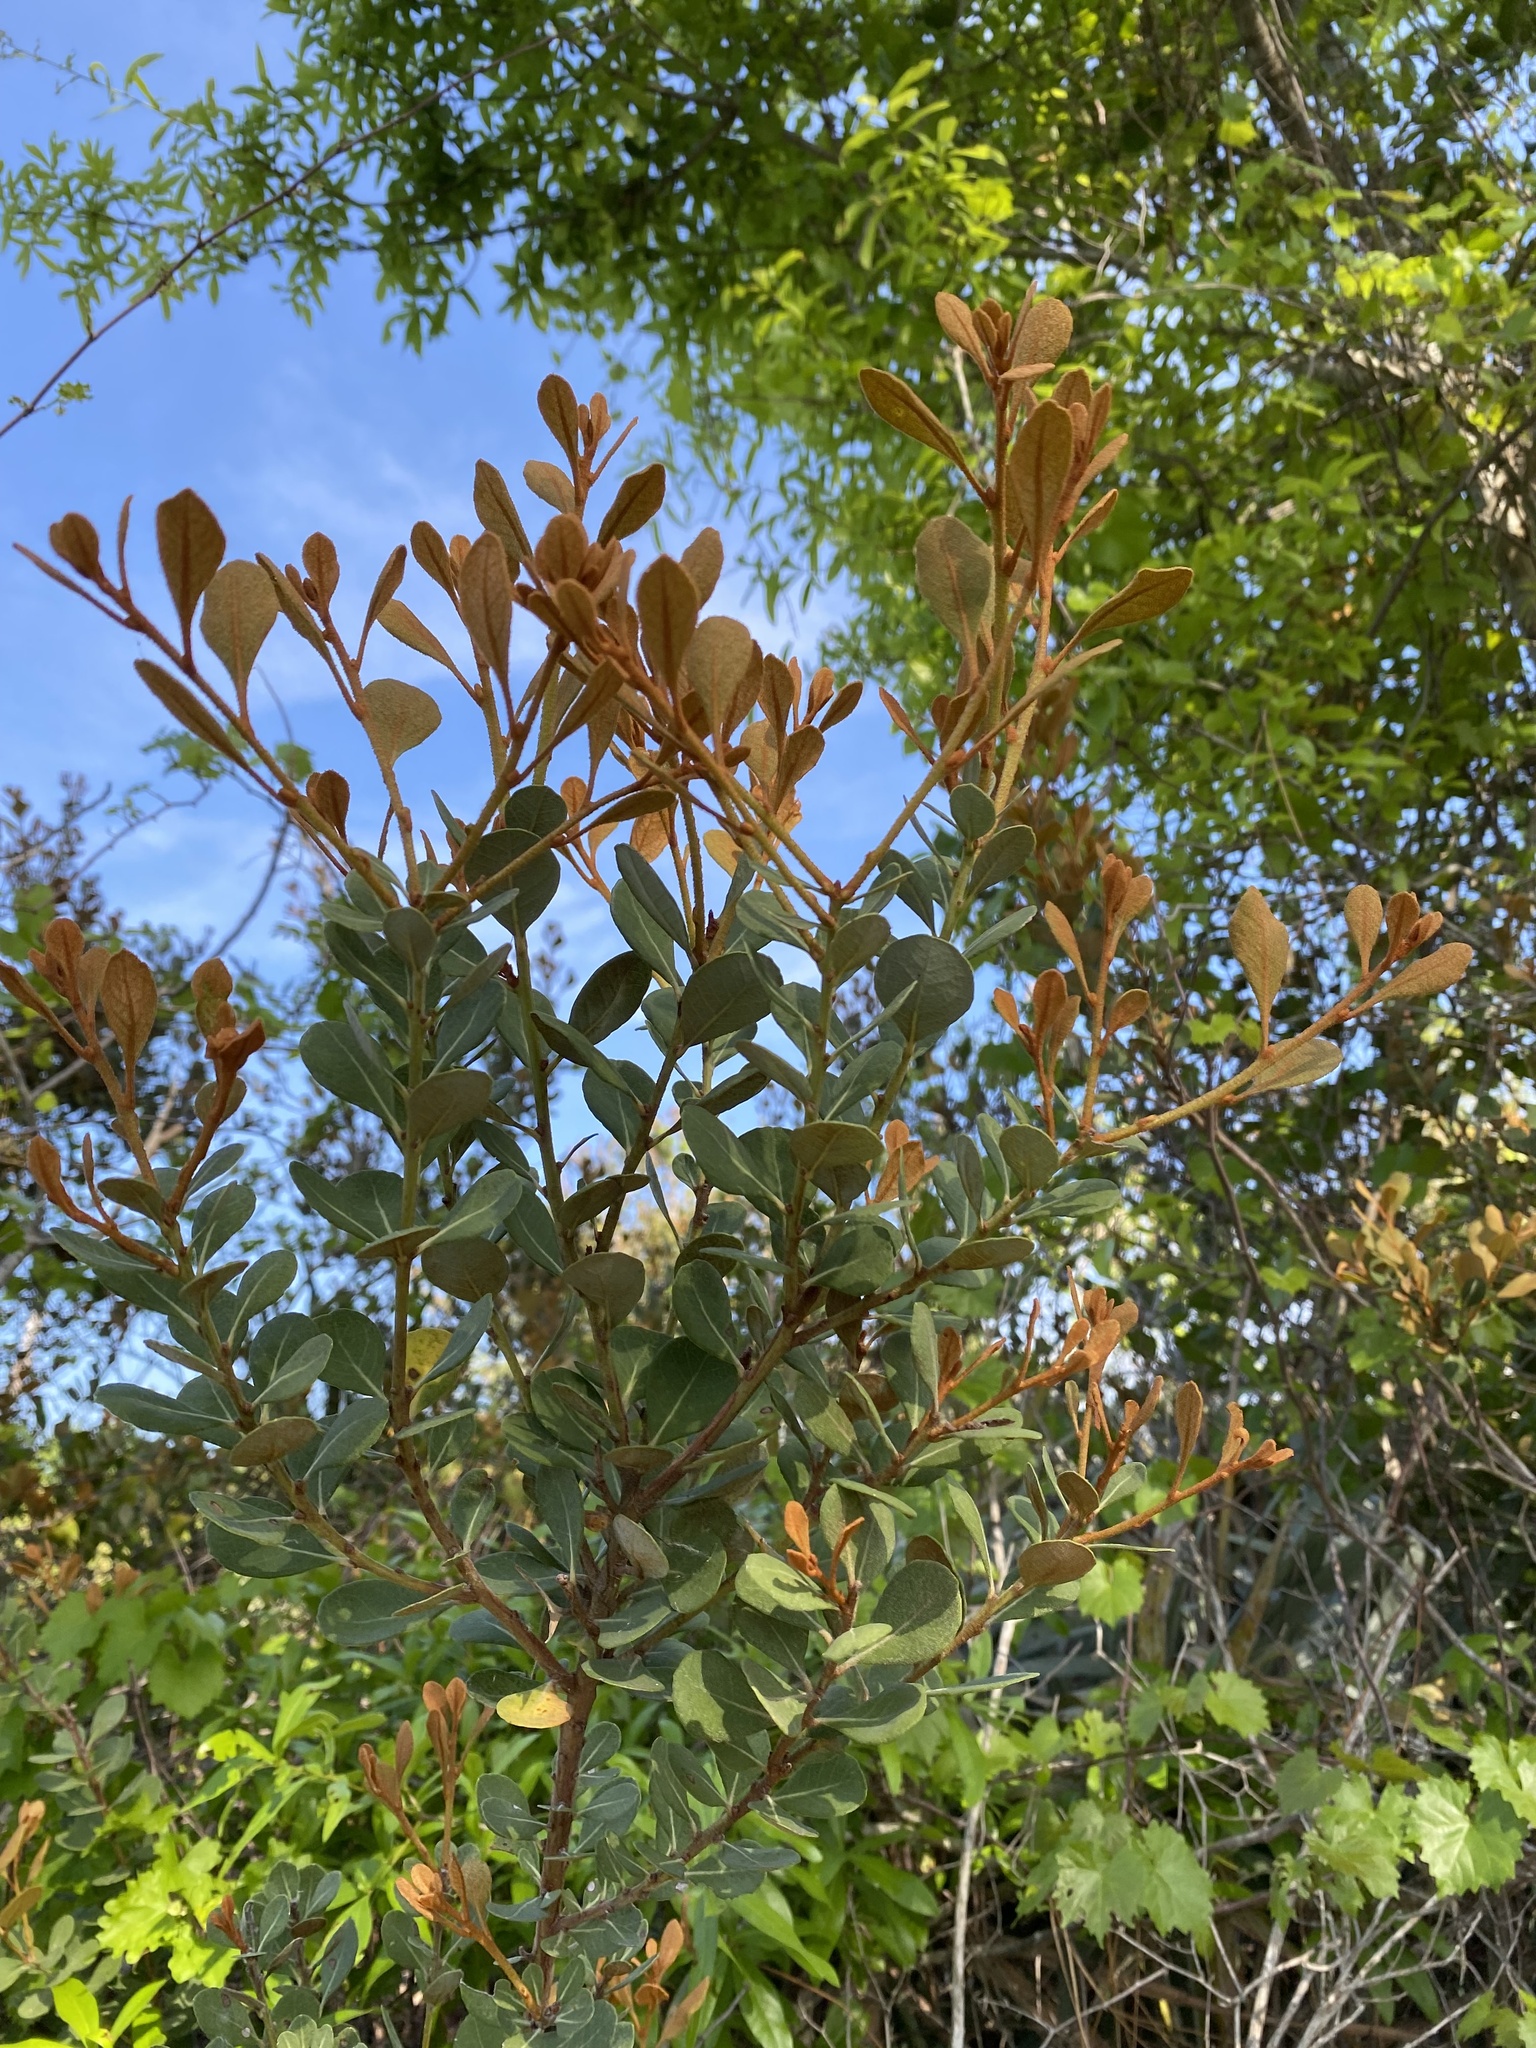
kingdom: Plantae
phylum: Tracheophyta
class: Magnoliopsida
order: Ericales
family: Ericaceae
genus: Lyonia
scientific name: Lyonia fruticosa
